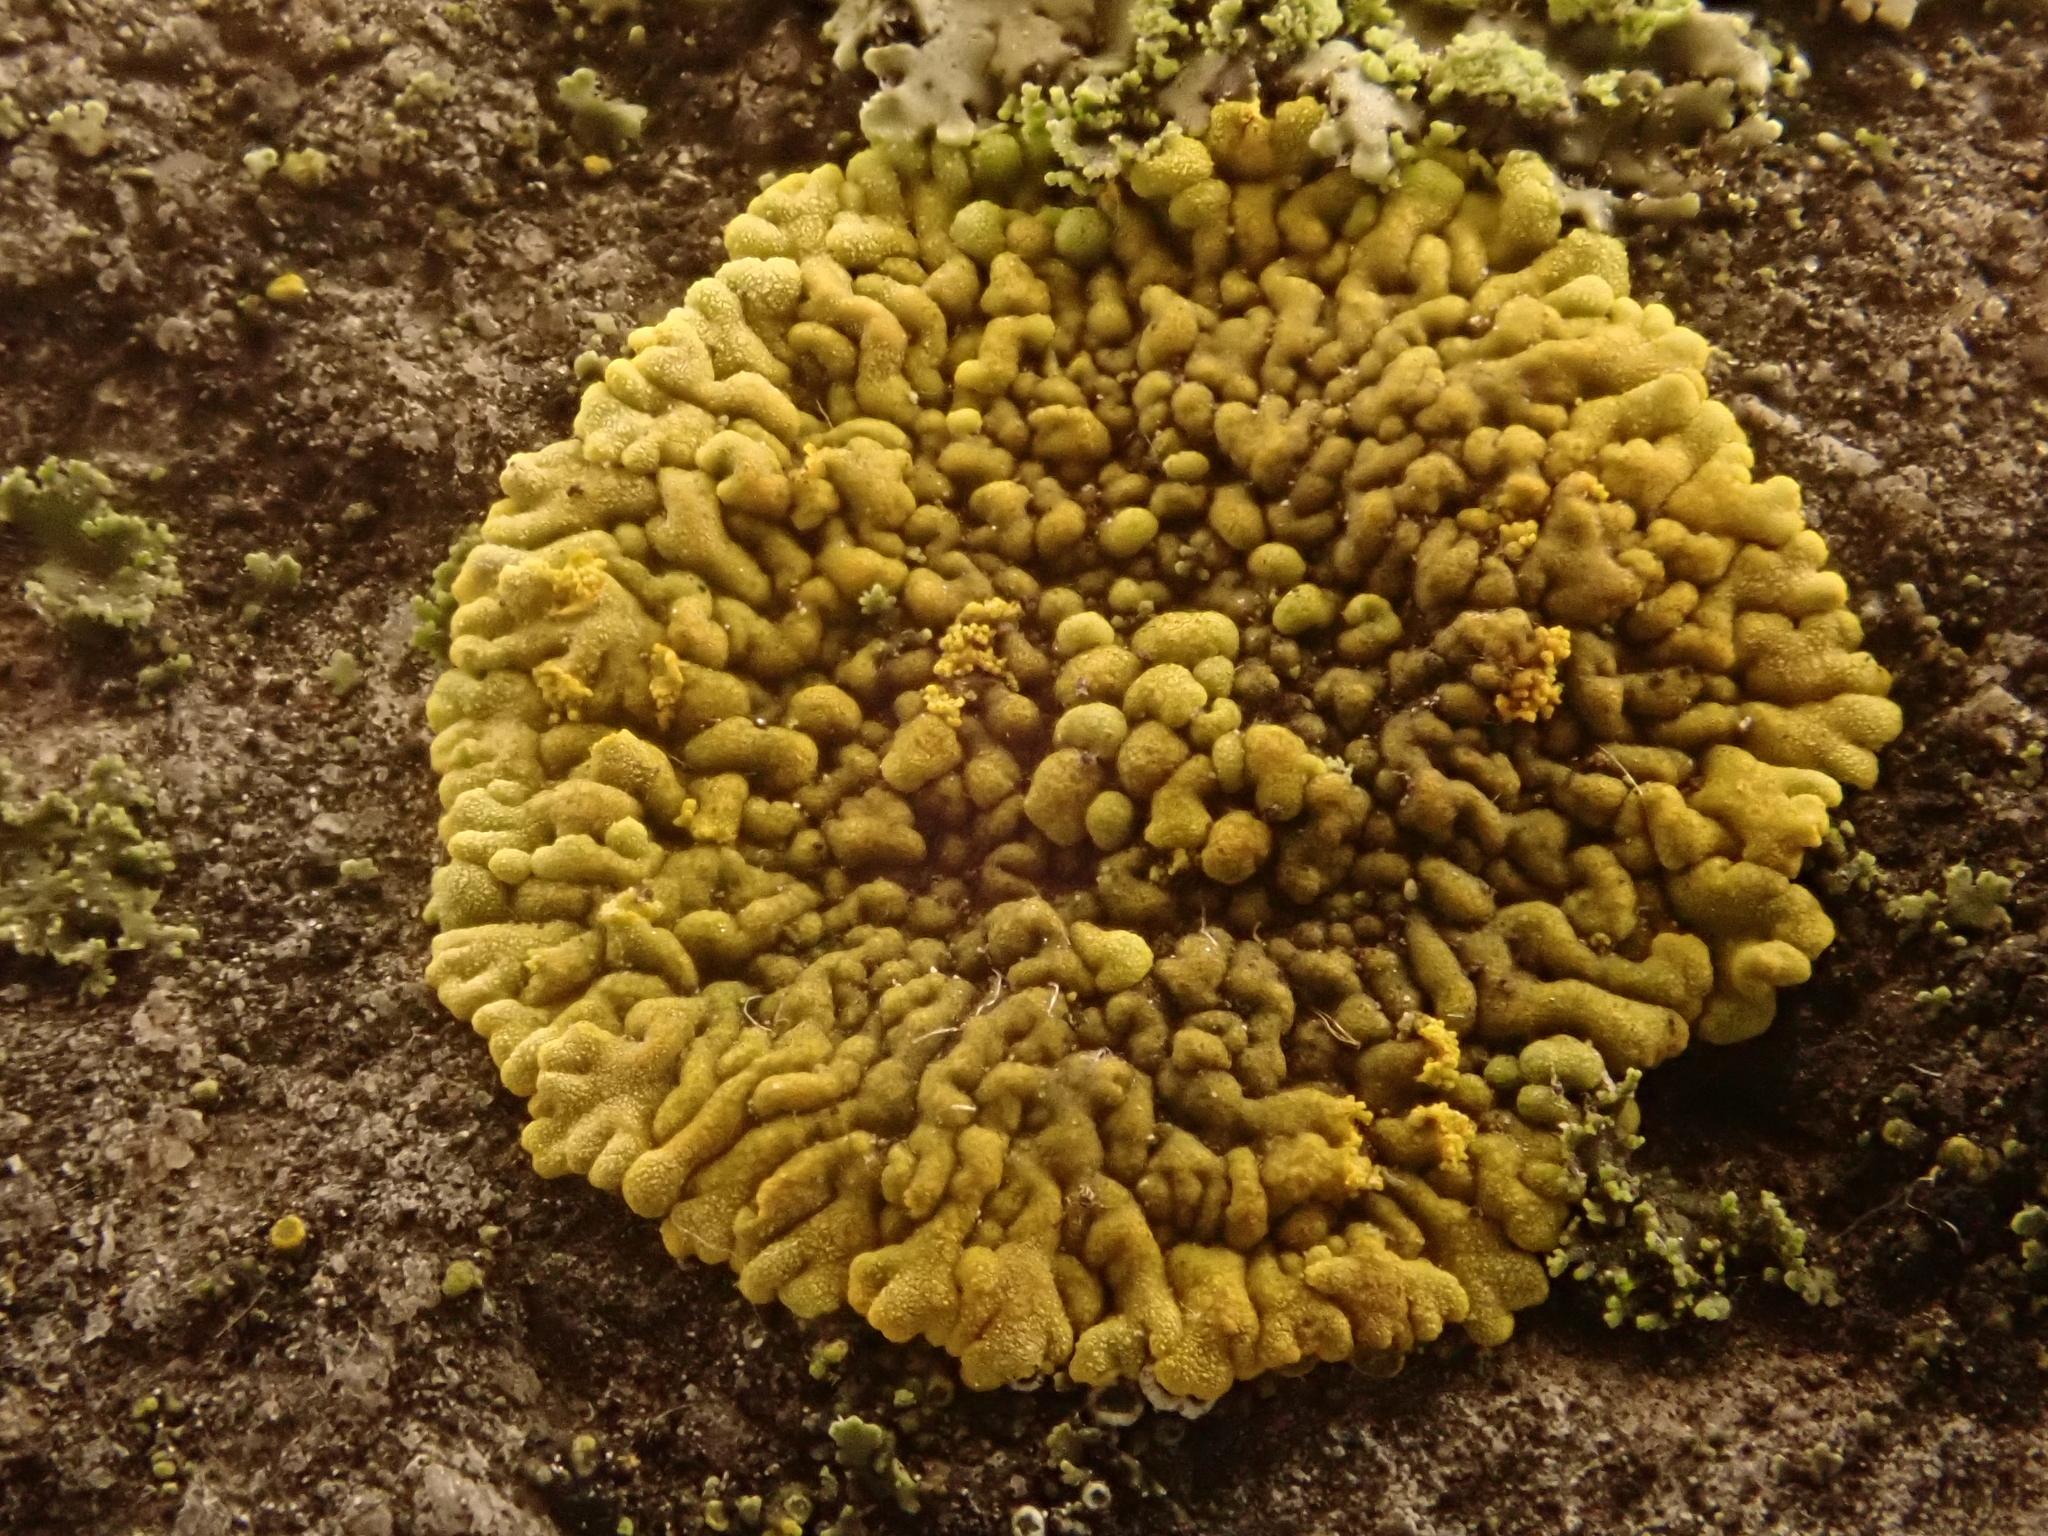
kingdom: Fungi
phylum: Ascomycota
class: Lecanoromycetes
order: Teloschistales
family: Teloschistaceae
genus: Calogaya
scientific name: Calogaya decipiens
